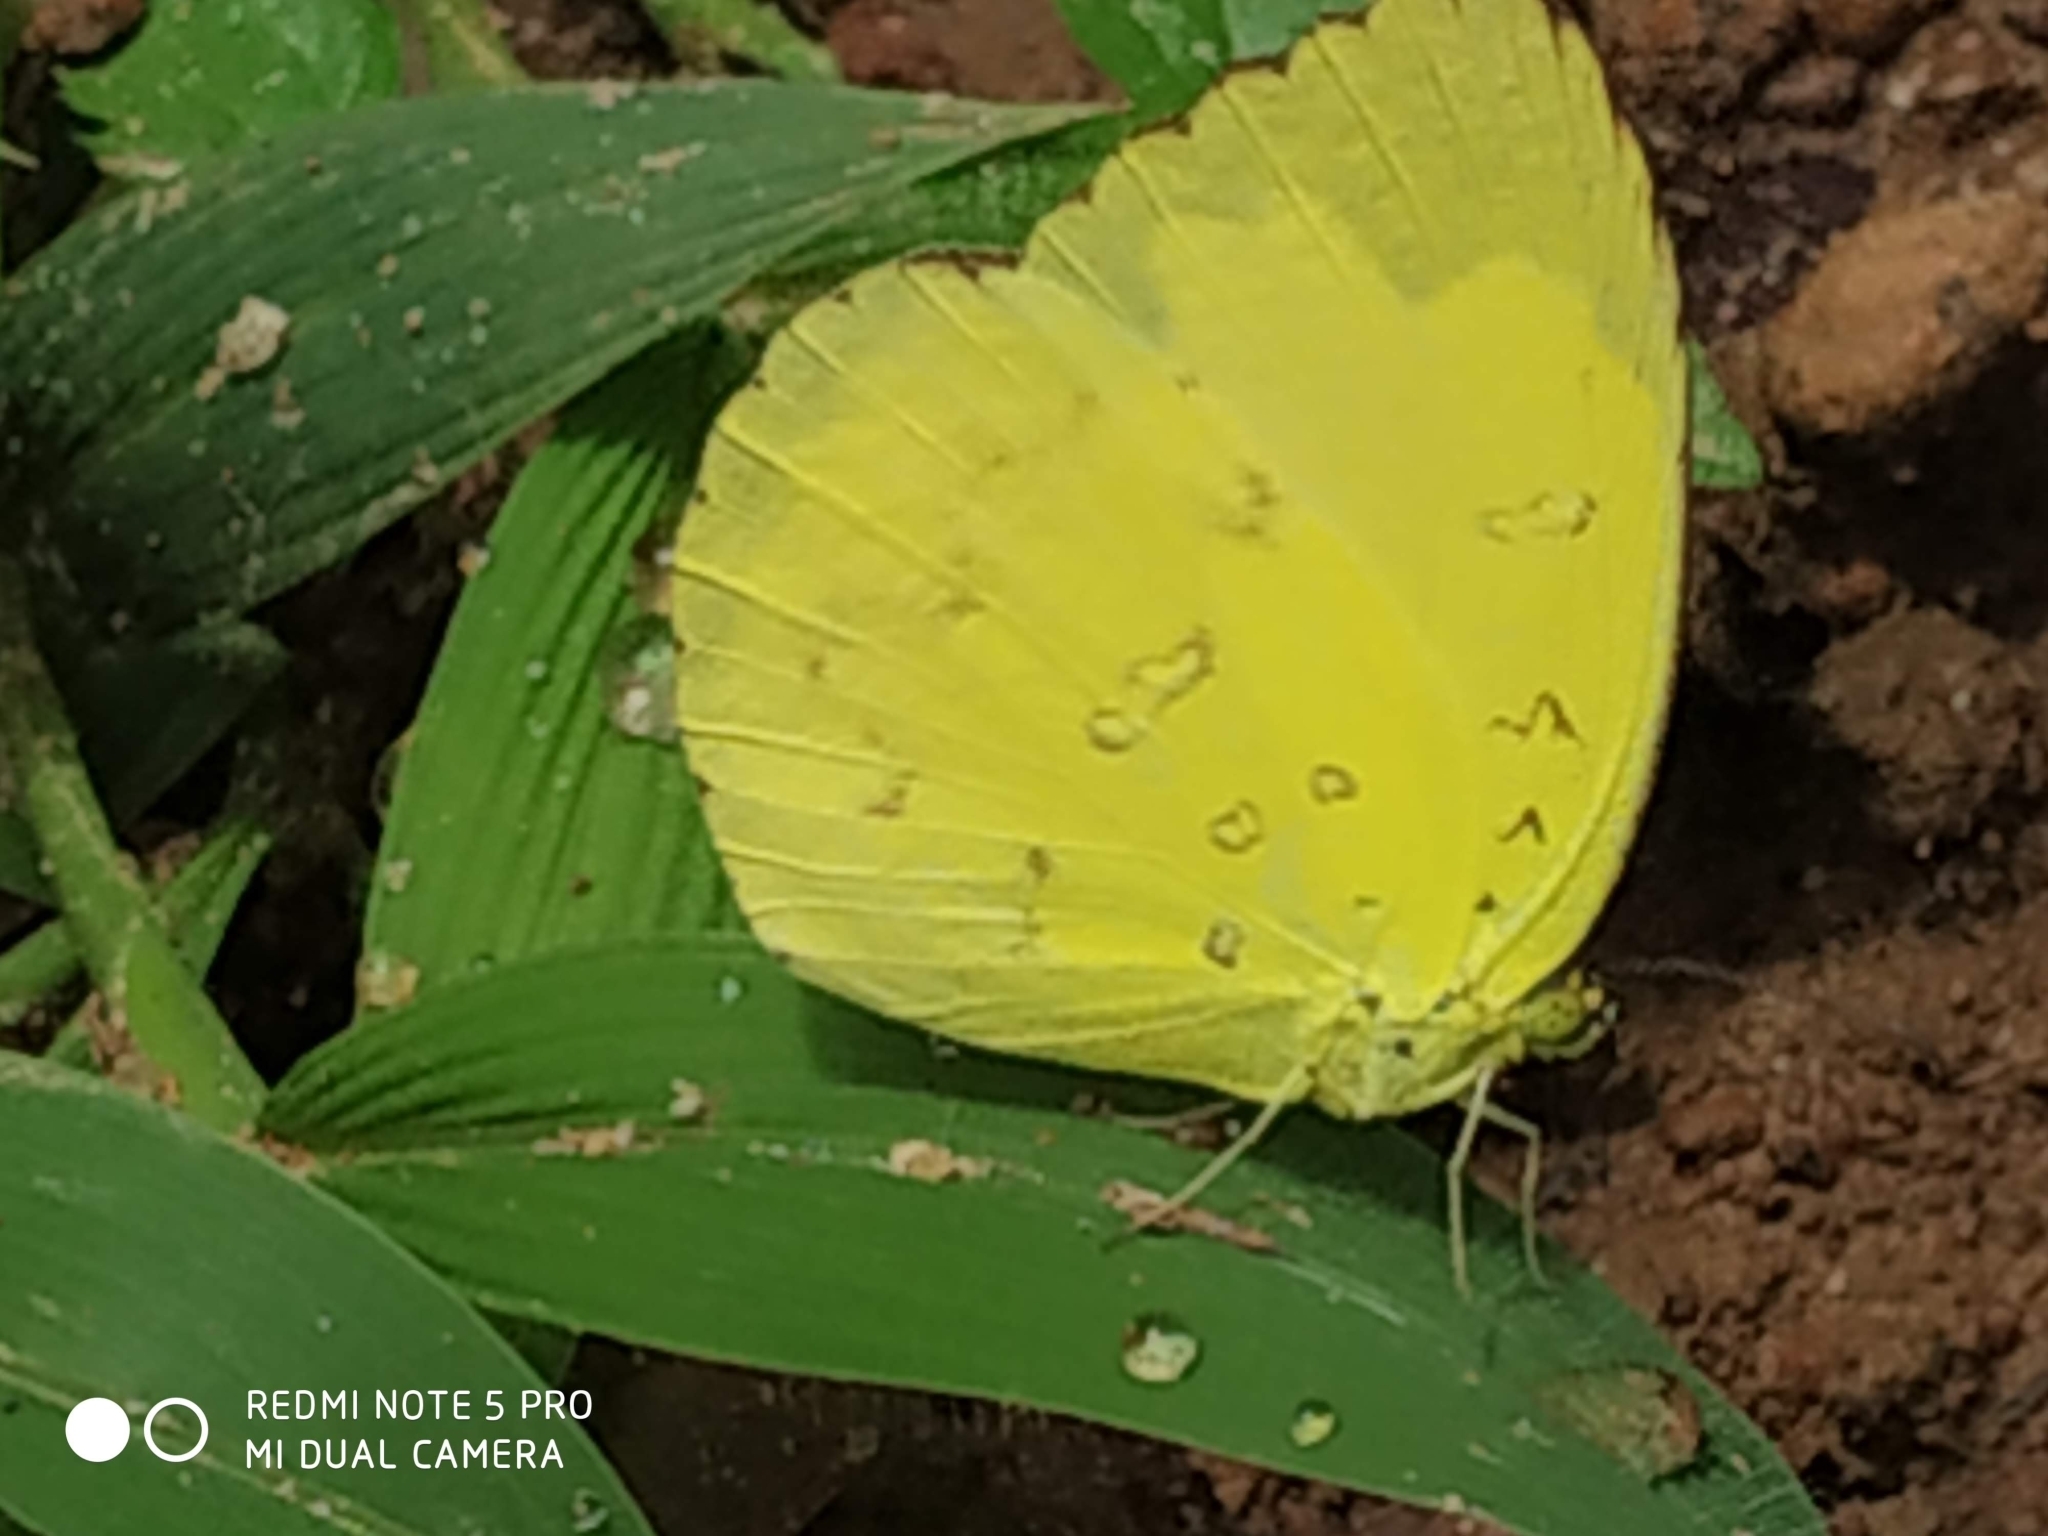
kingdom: Animalia
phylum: Arthropoda
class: Insecta
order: Lepidoptera
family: Pieridae
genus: Eurema
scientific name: Eurema blanda
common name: Three-spot grass yellow
